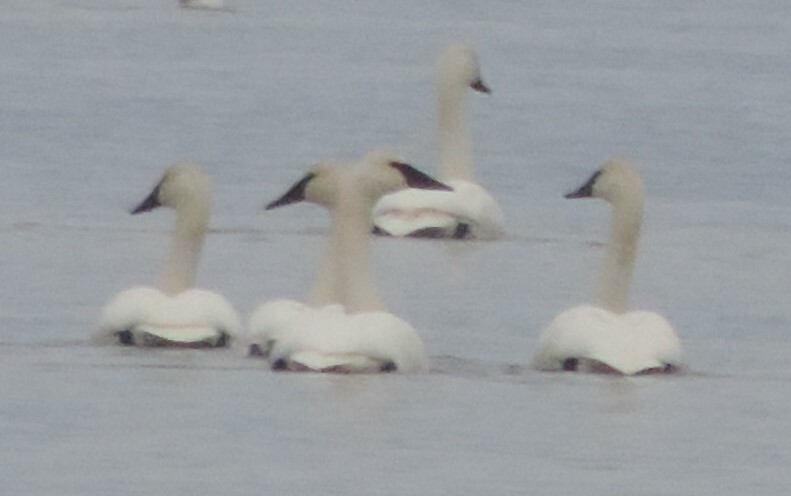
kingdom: Animalia
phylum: Chordata
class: Aves
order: Anseriformes
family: Anatidae
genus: Cygnus
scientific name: Cygnus buccinator
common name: Trumpeter swan
